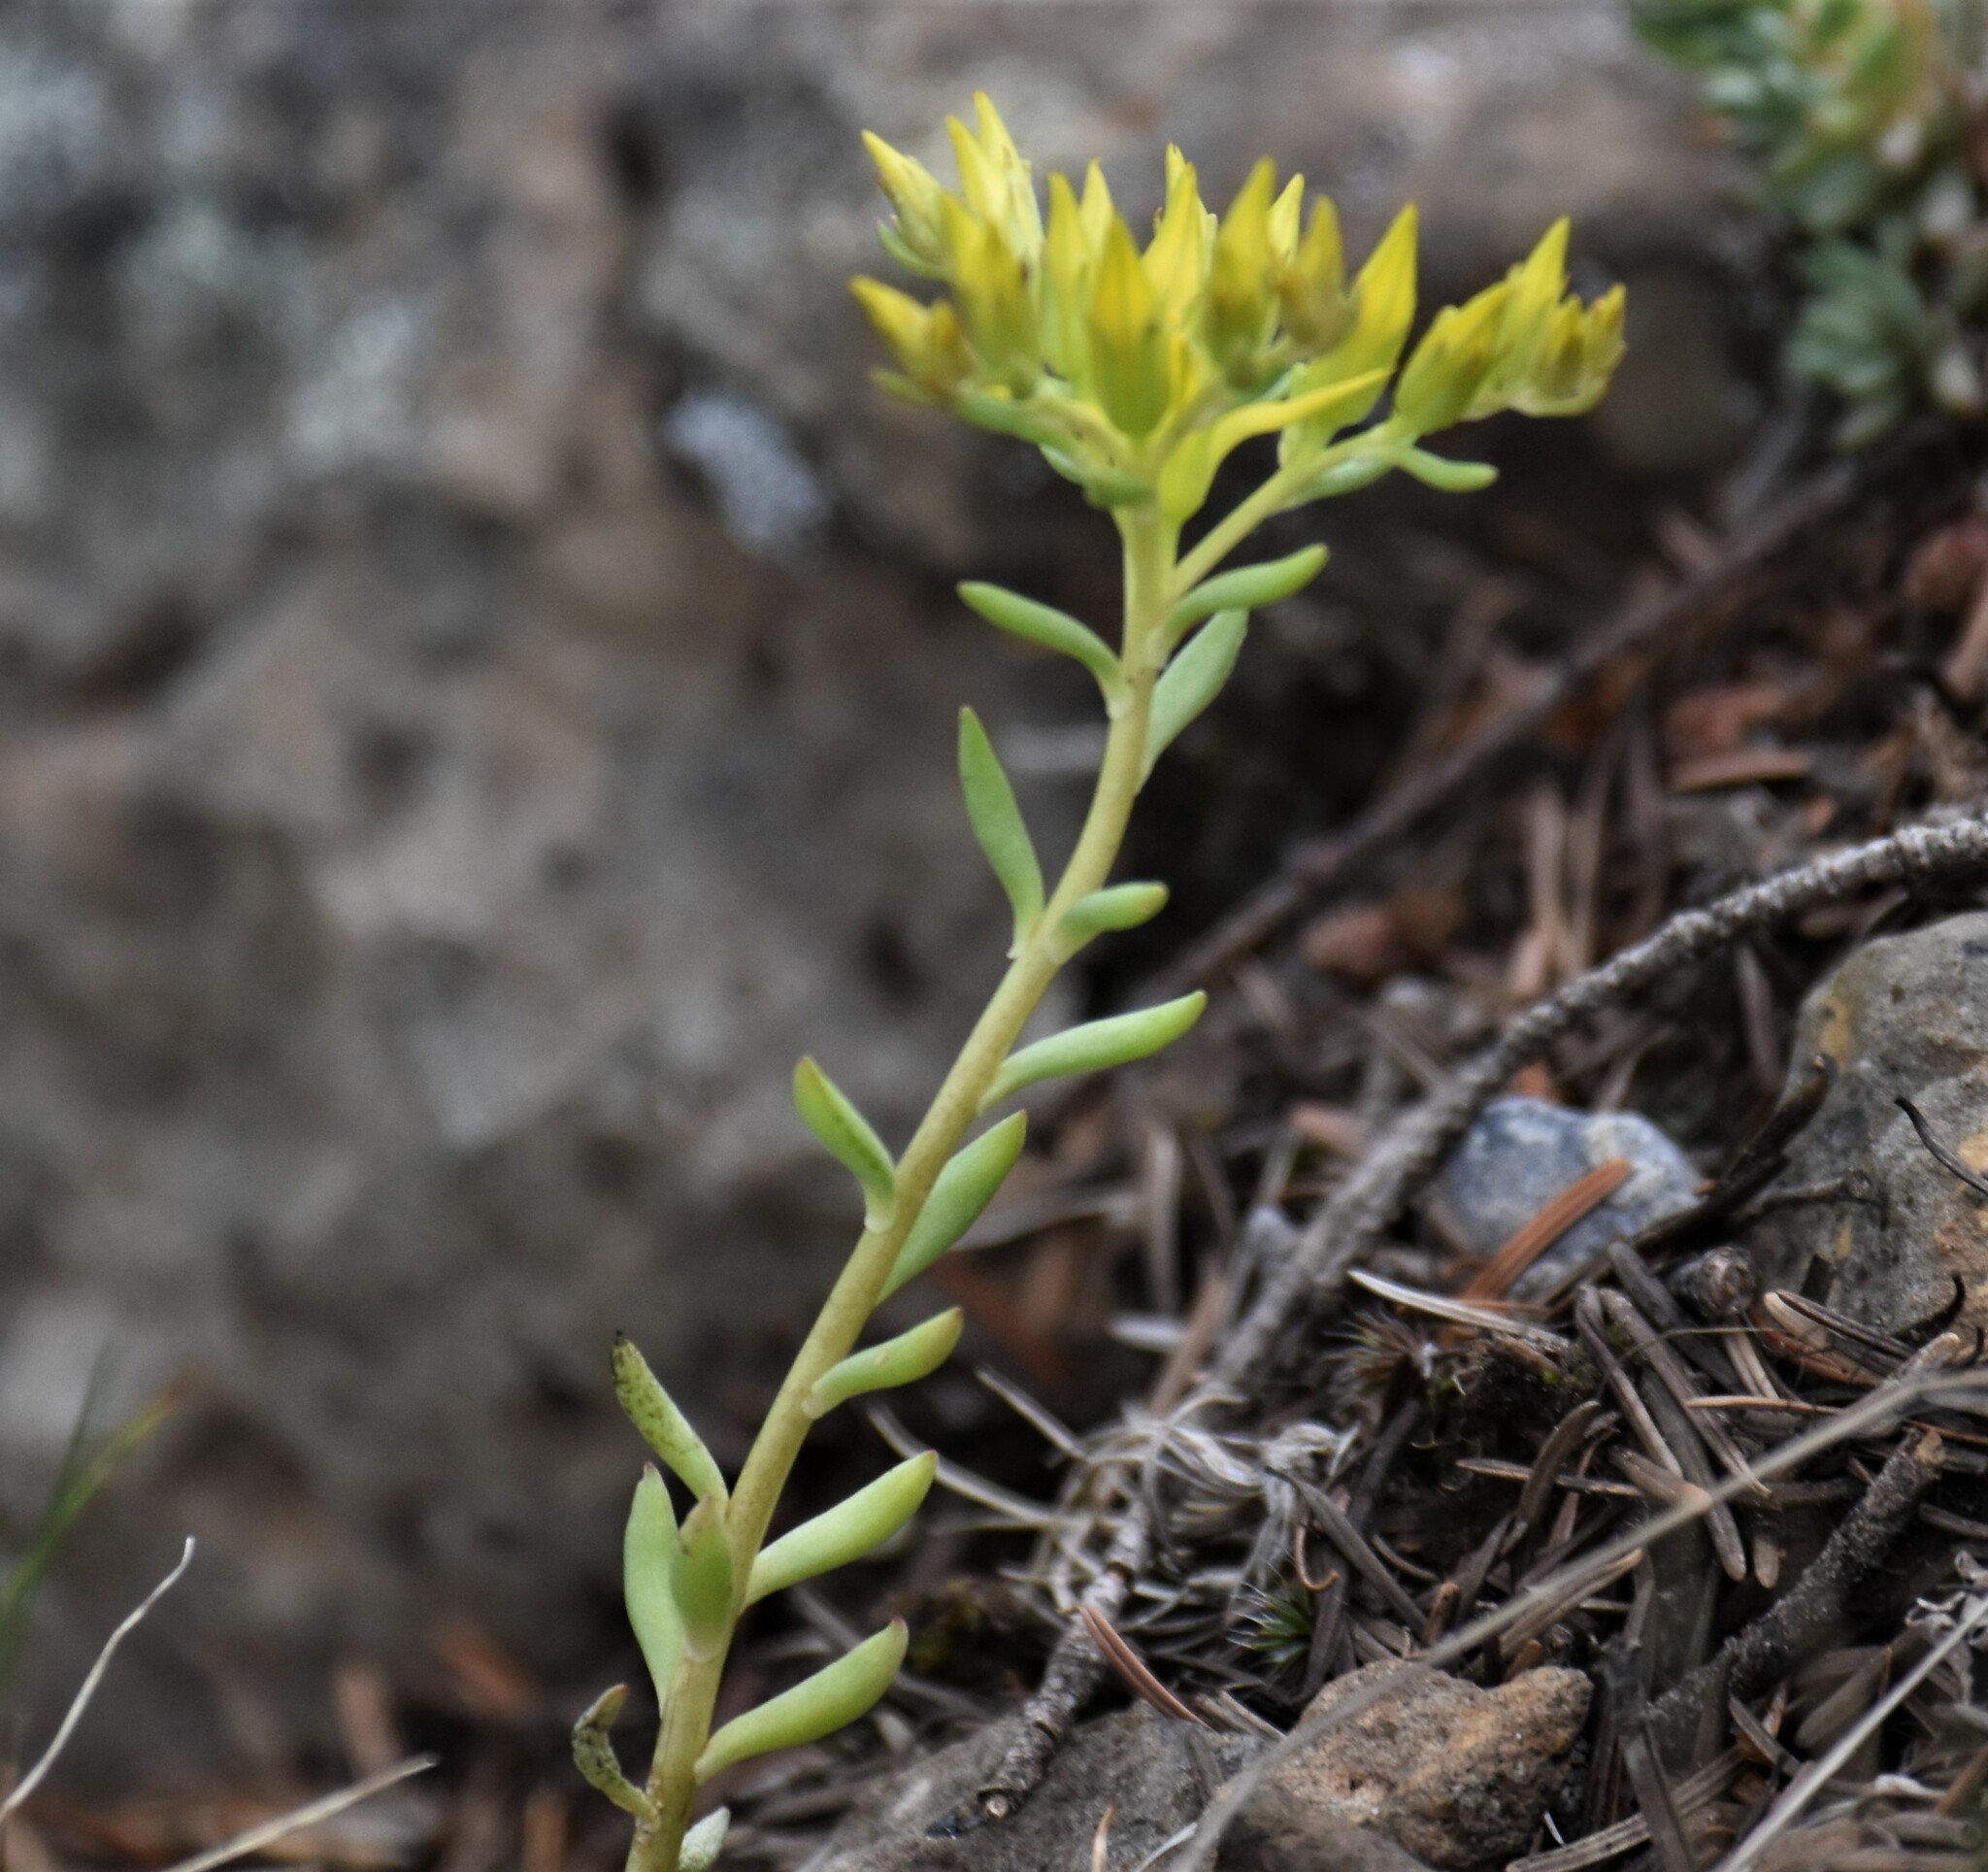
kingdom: Plantae
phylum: Tracheophyta
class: Magnoliopsida
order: Saxifragales
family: Crassulaceae
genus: Sedum
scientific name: Sedum lanceolatum
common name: Common stonecrop
